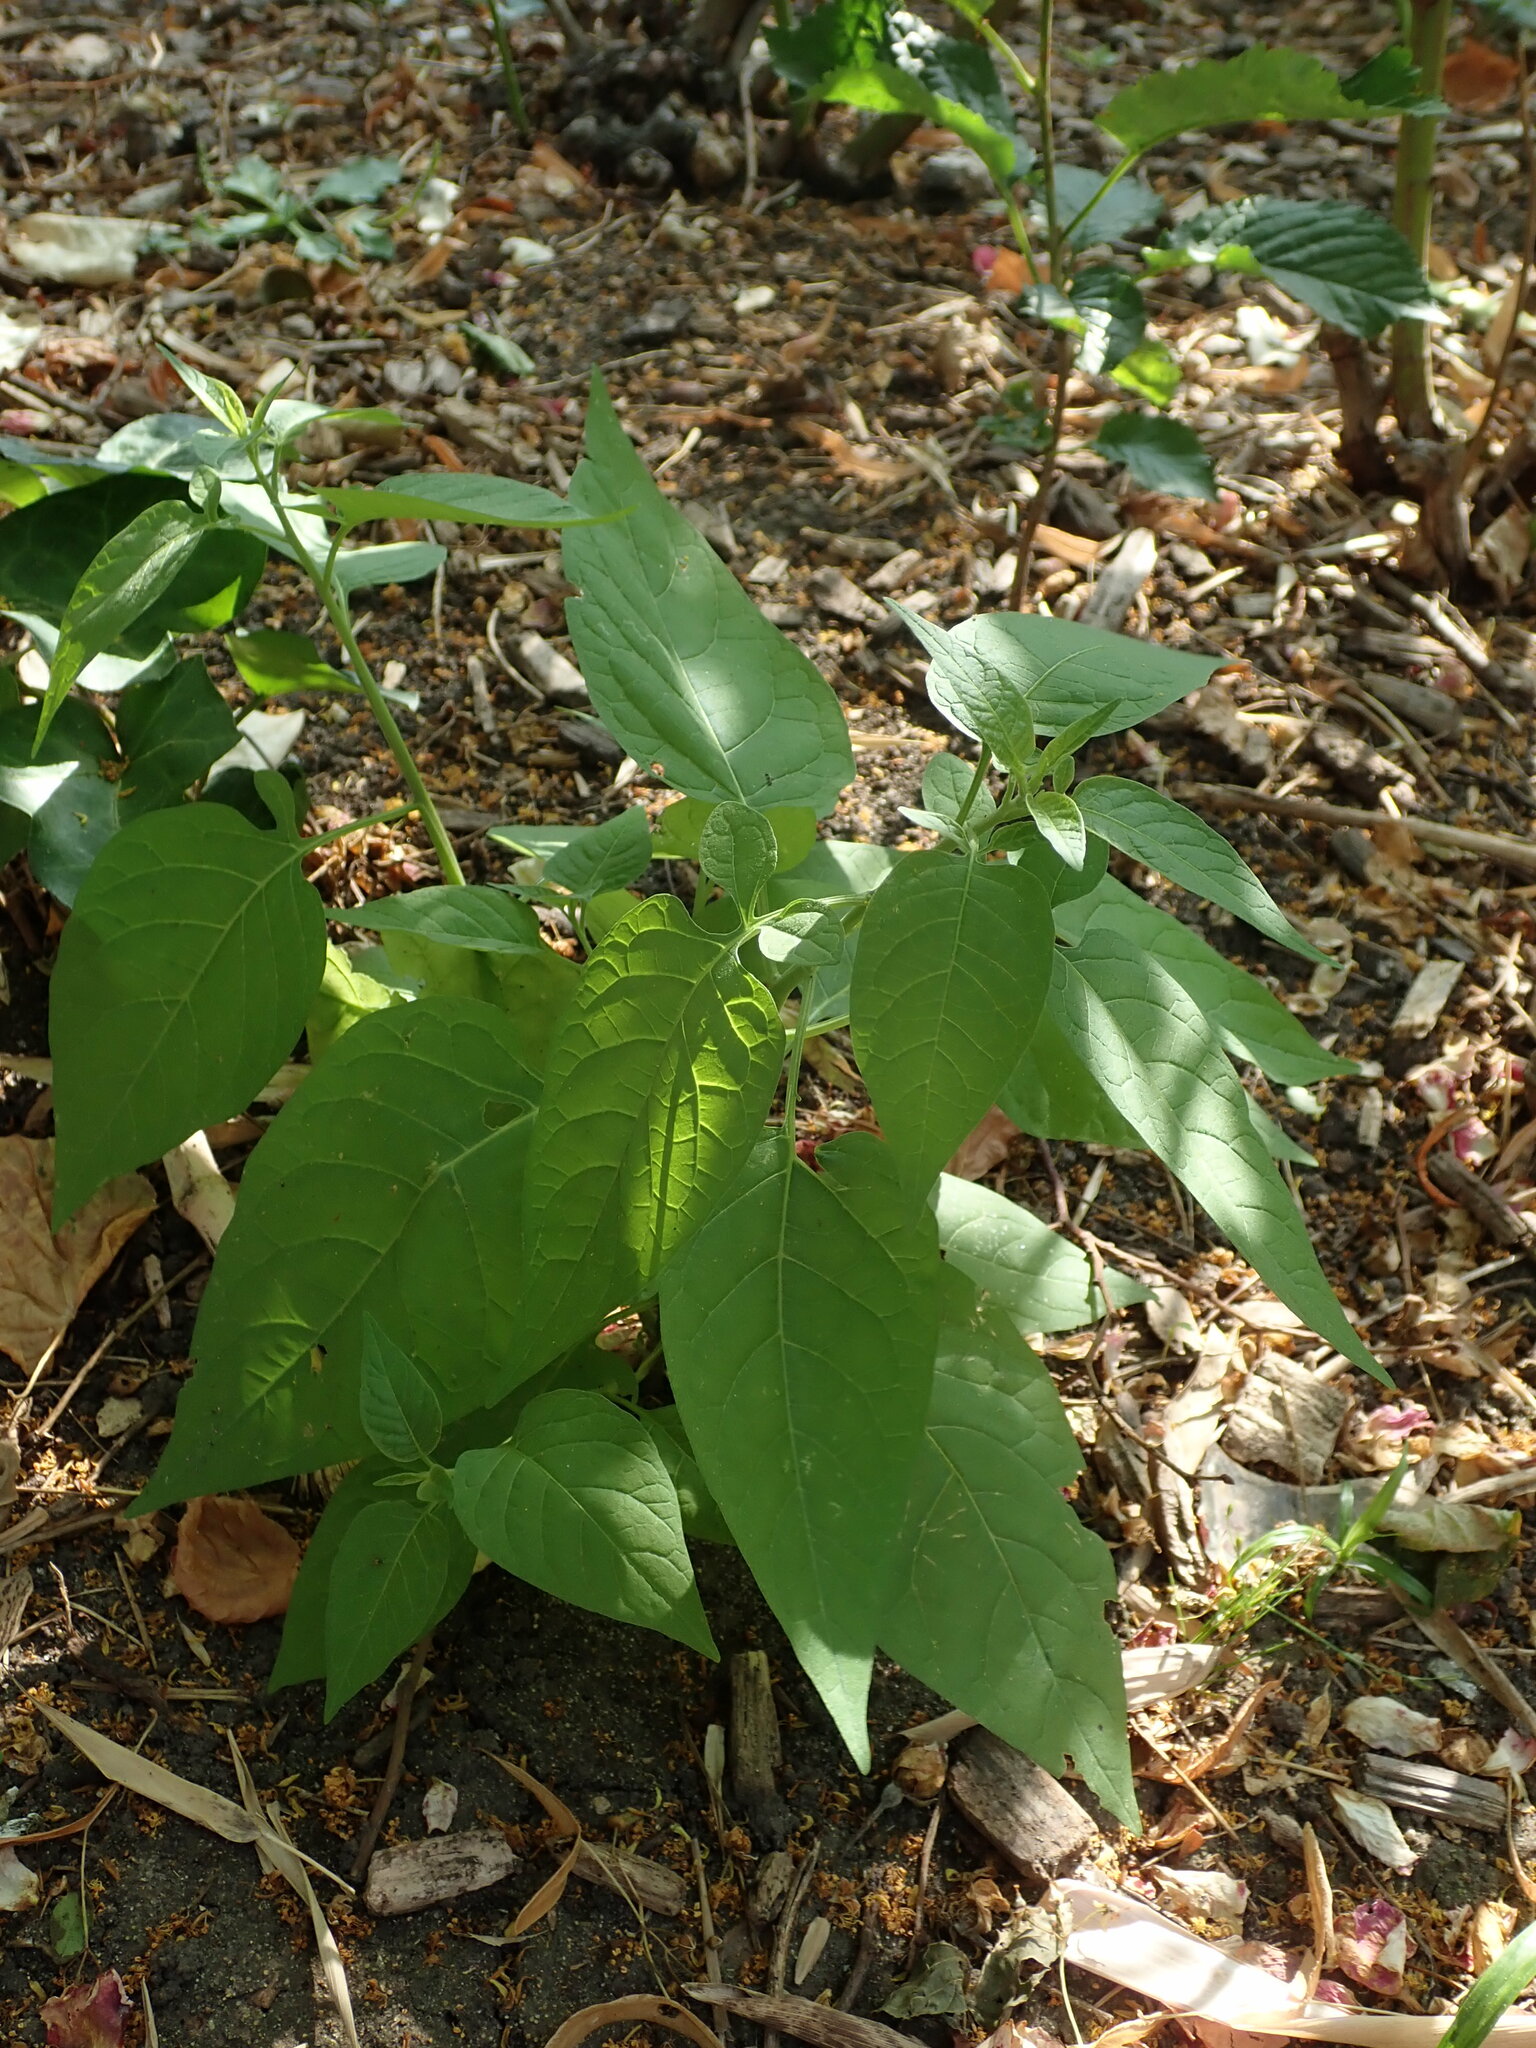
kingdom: Plantae
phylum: Tracheophyta
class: Magnoliopsida
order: Solanales
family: Solanaceae
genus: Solanum
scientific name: Solanum dulcamara
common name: Climbing nightshade
